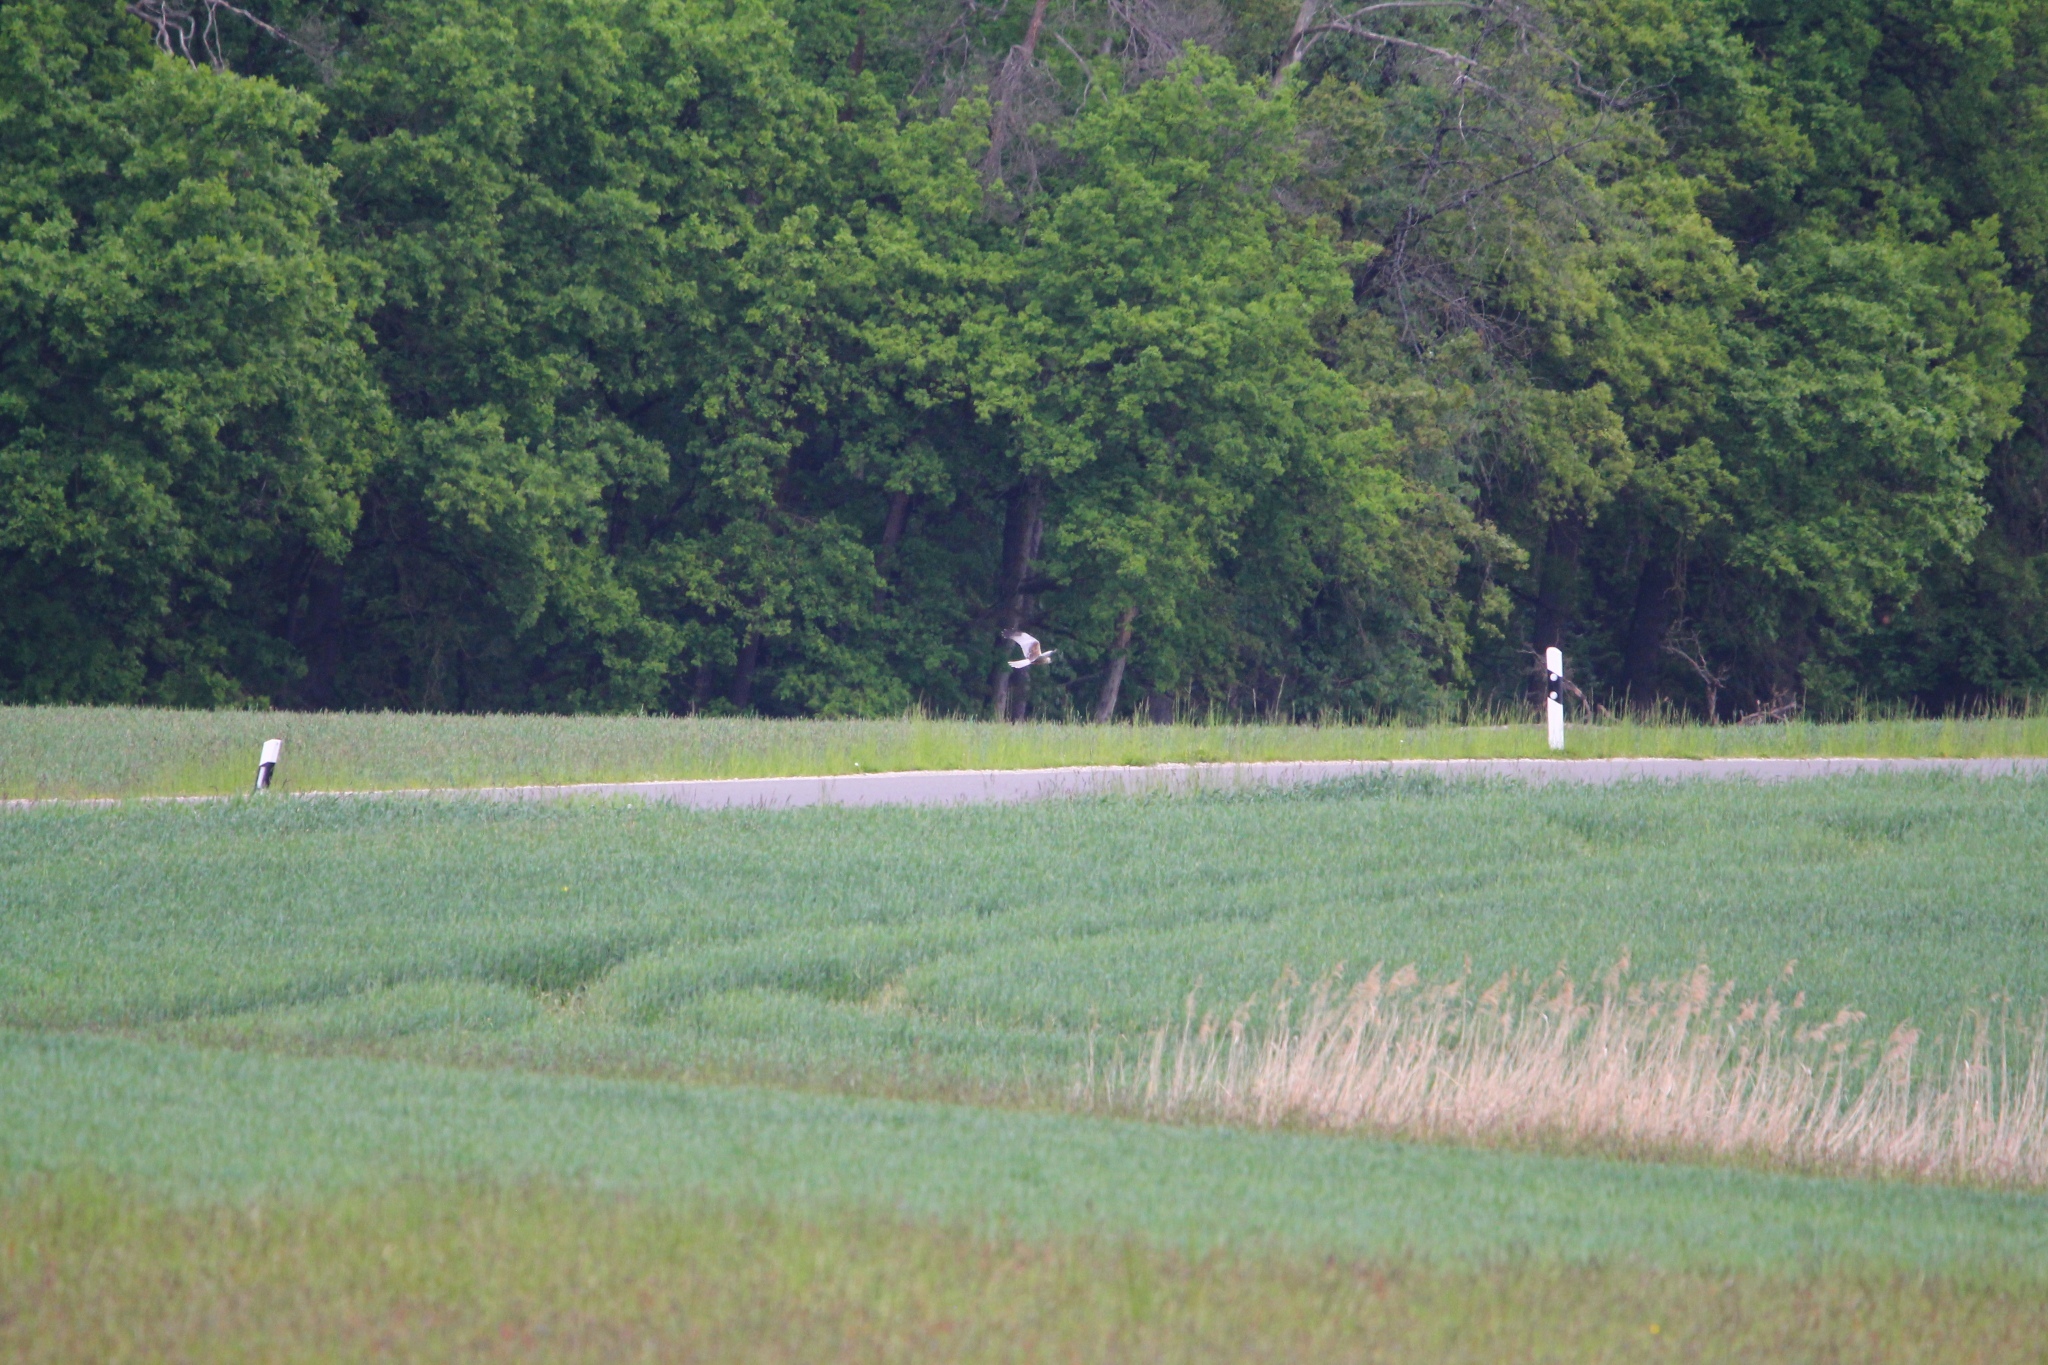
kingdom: Animalia
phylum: Chordata
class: Aves
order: Accipitriformes
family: Accipitridae
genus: Circus
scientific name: Circus aeruginosus
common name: Western marsh harrier
